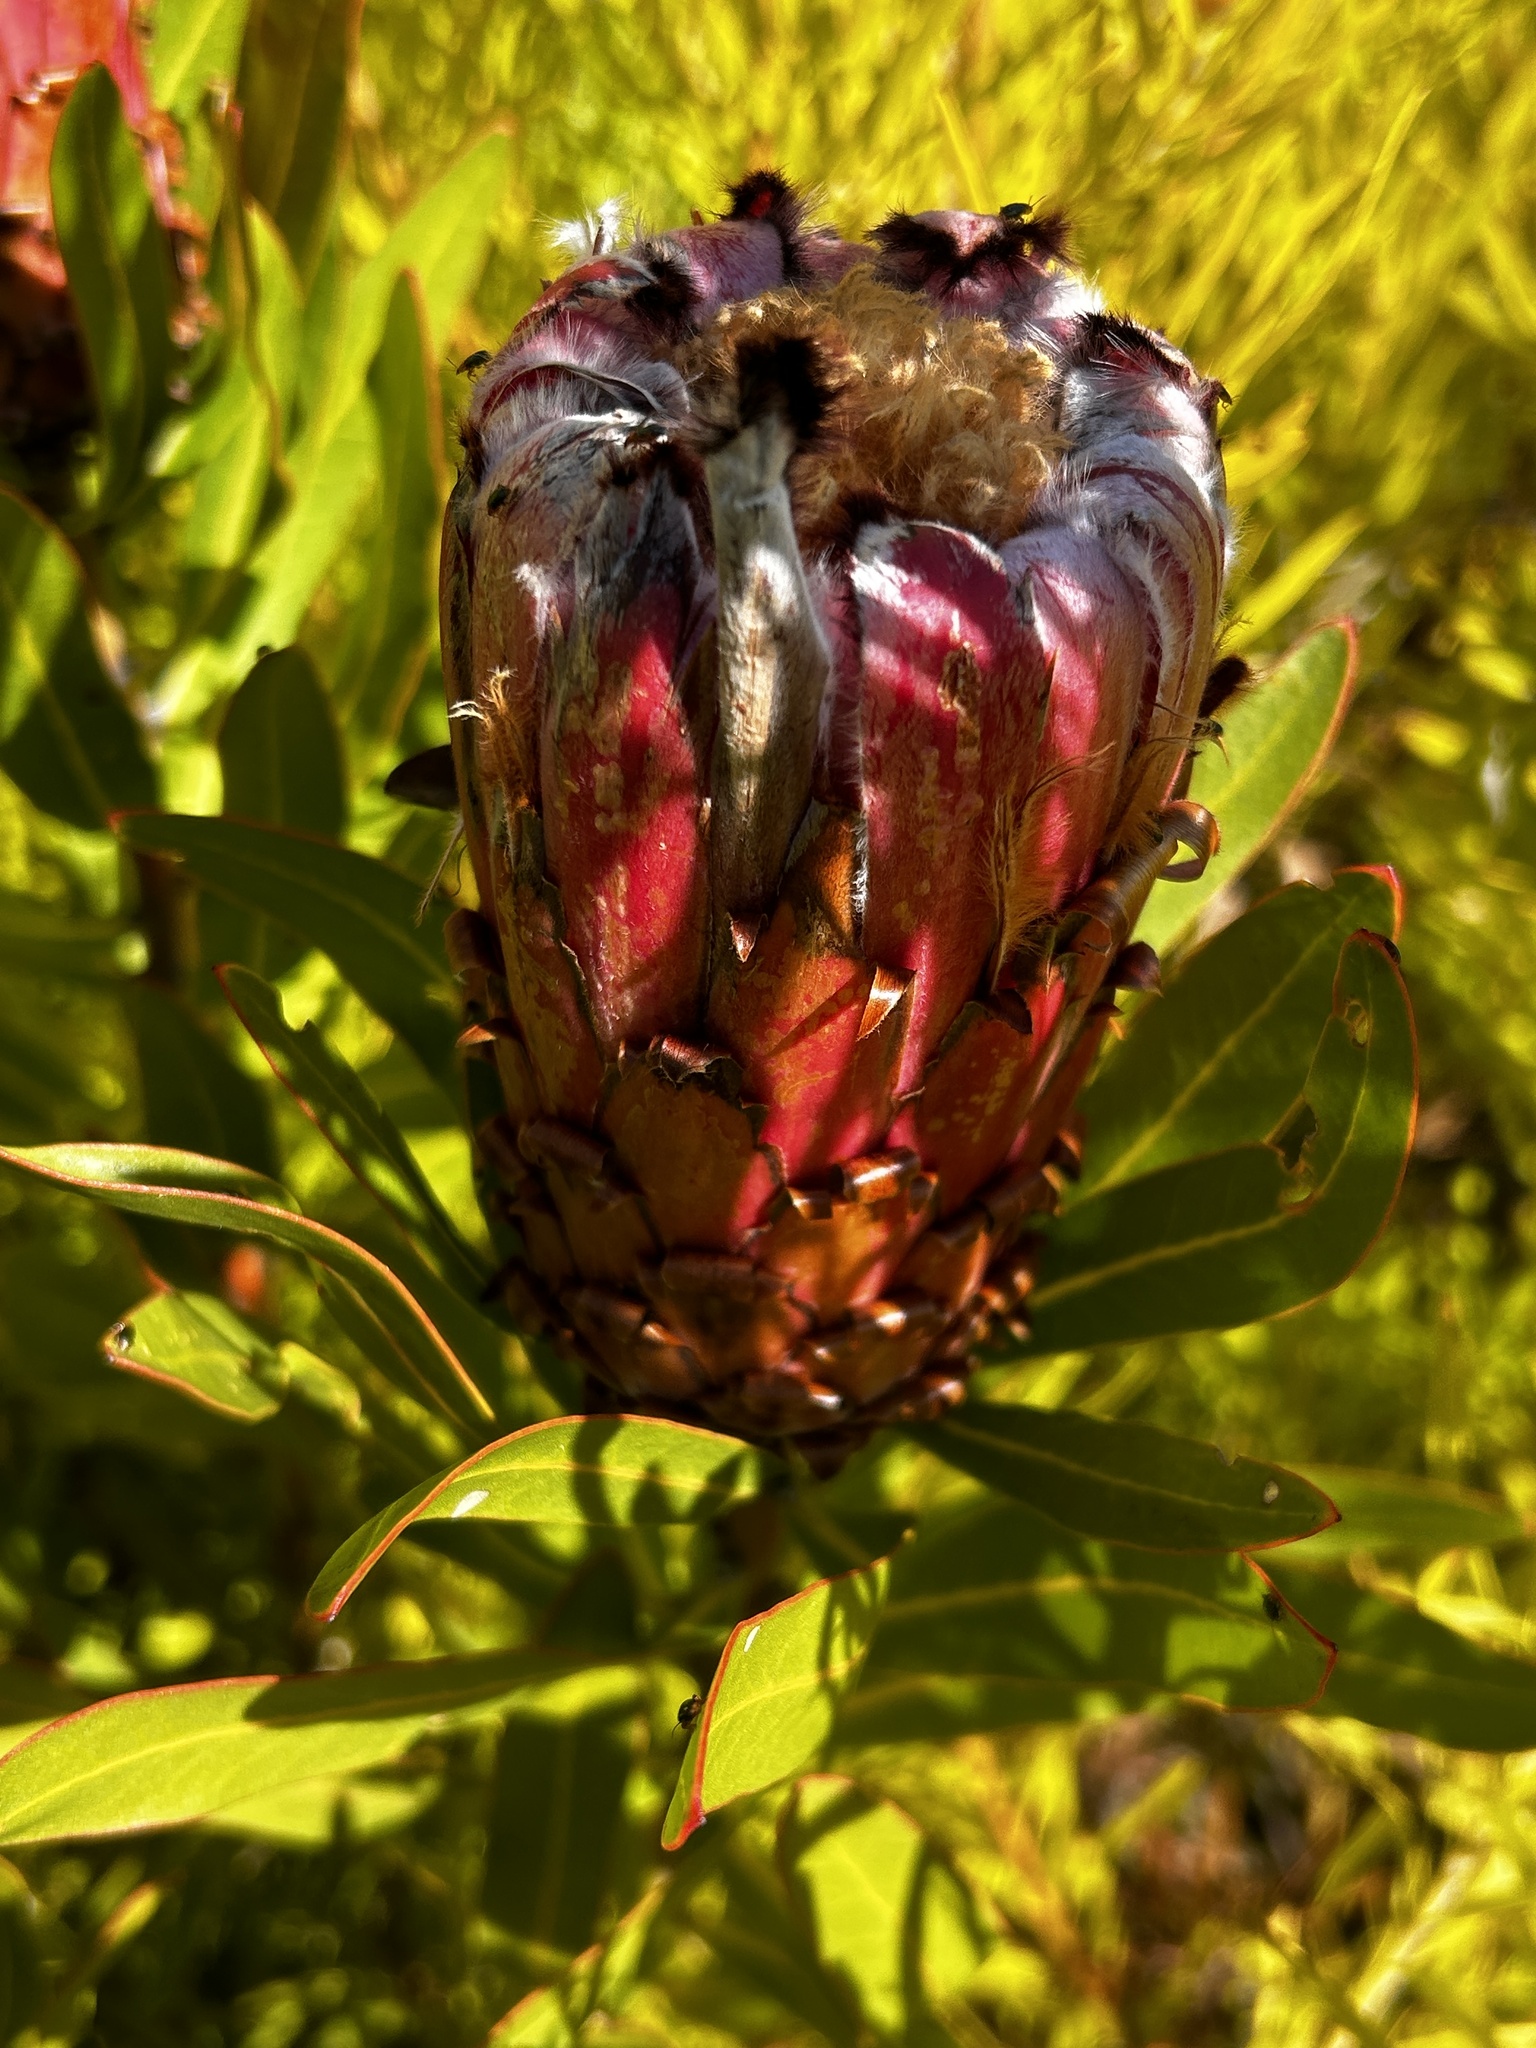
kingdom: Plantae
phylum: Tracheophyta
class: Magnoliopsida
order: Proteales
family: Proteaceae
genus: Protea
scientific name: Protea neriifolia
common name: Blue sugarbush
